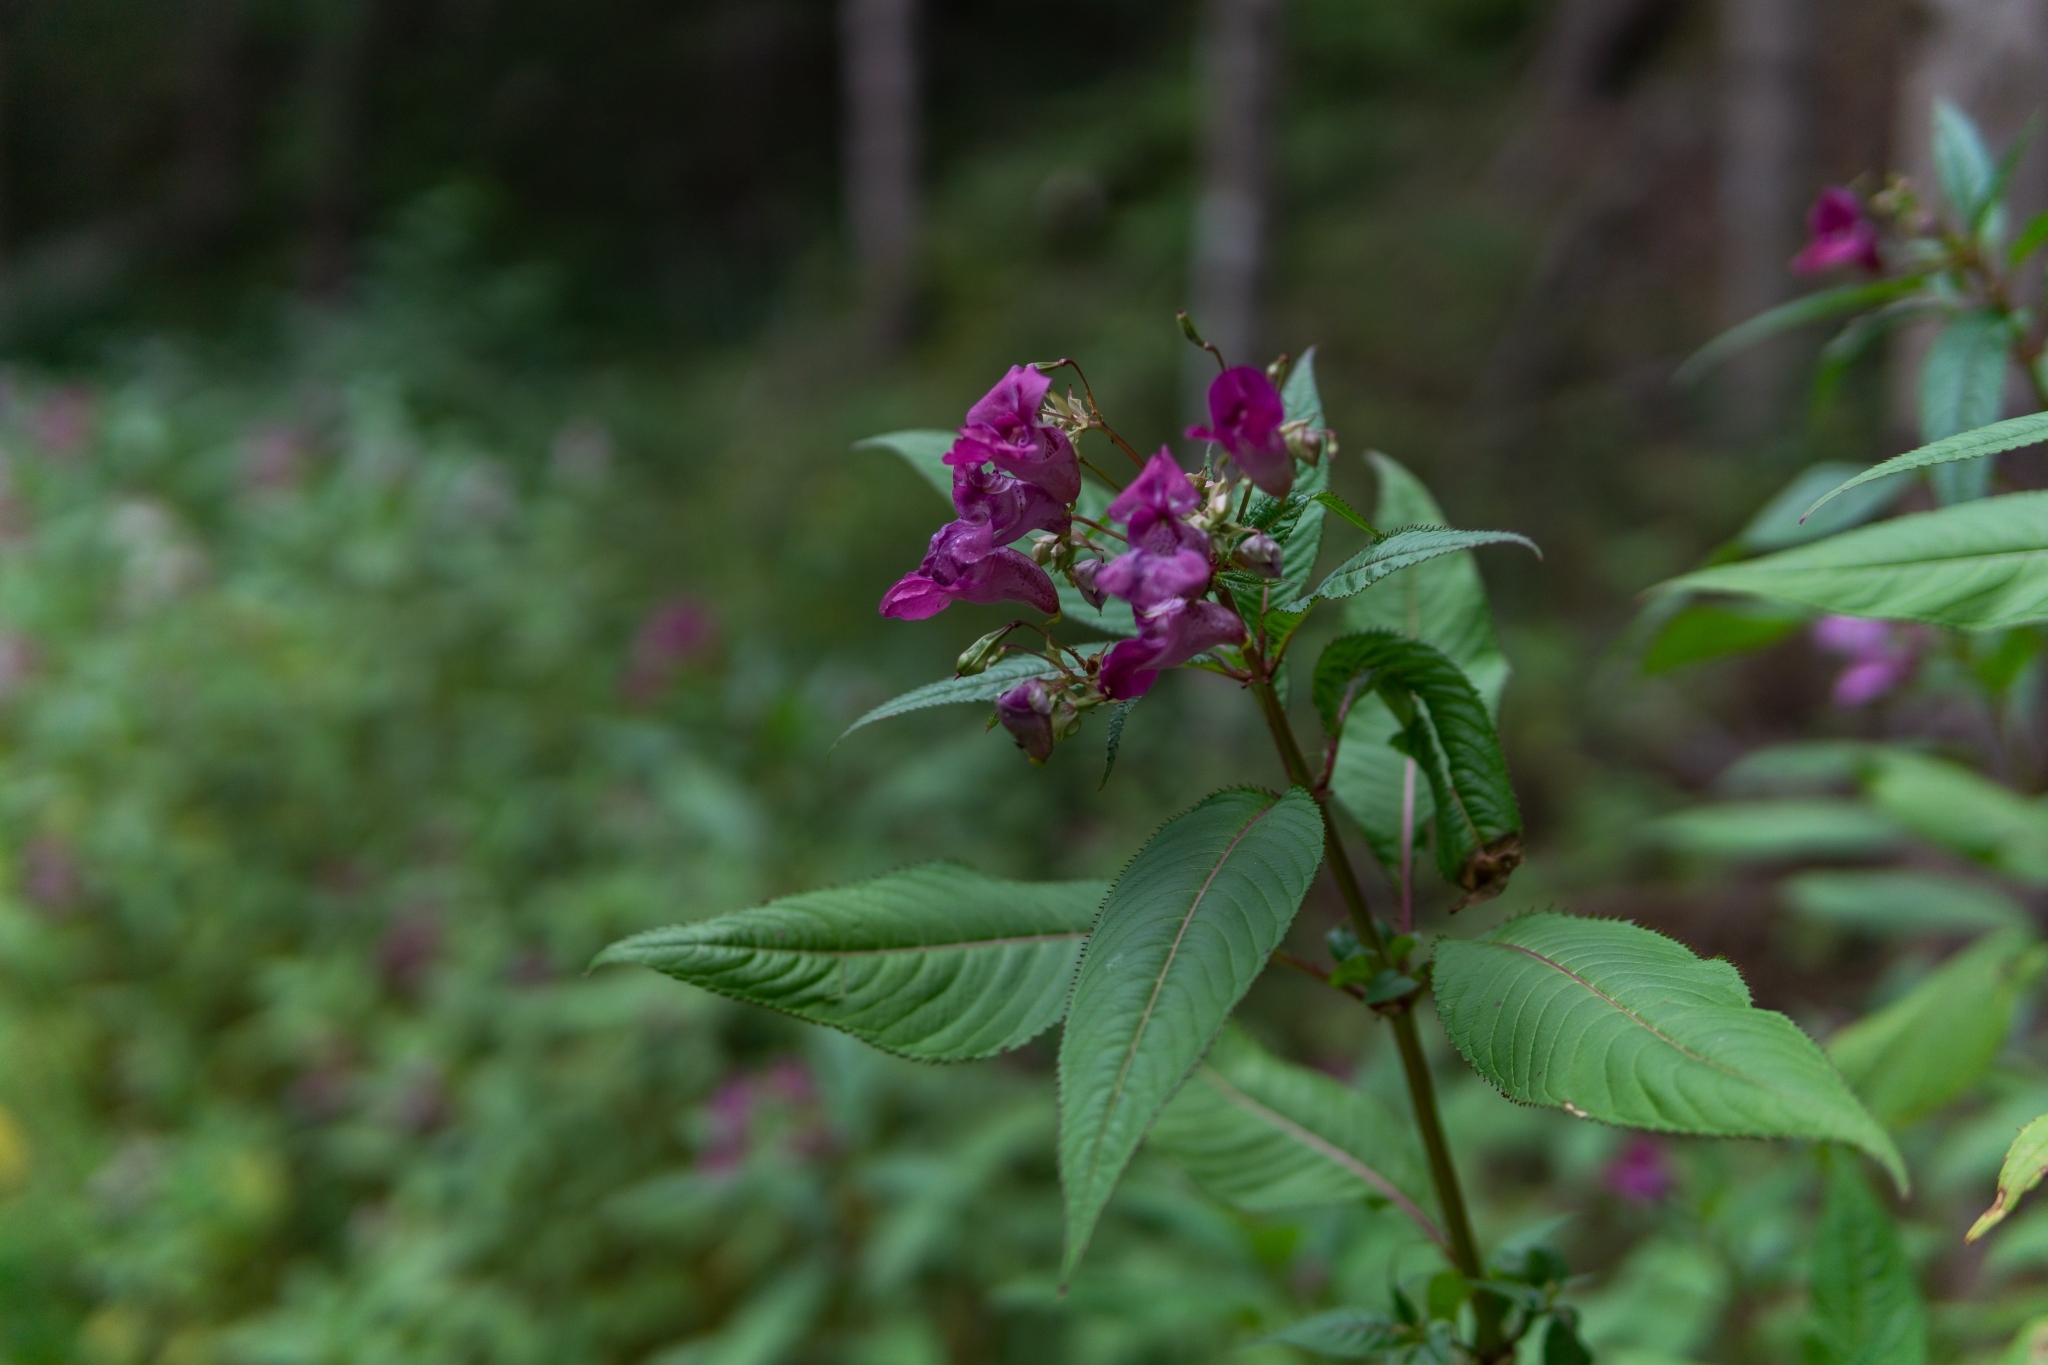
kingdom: Plantae
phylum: Tracheophyta
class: Magnoliopsida
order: Ericales
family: Balsaminaceae
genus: Impatiens
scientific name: Impatiens glandulifera
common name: Himalayan balsam
